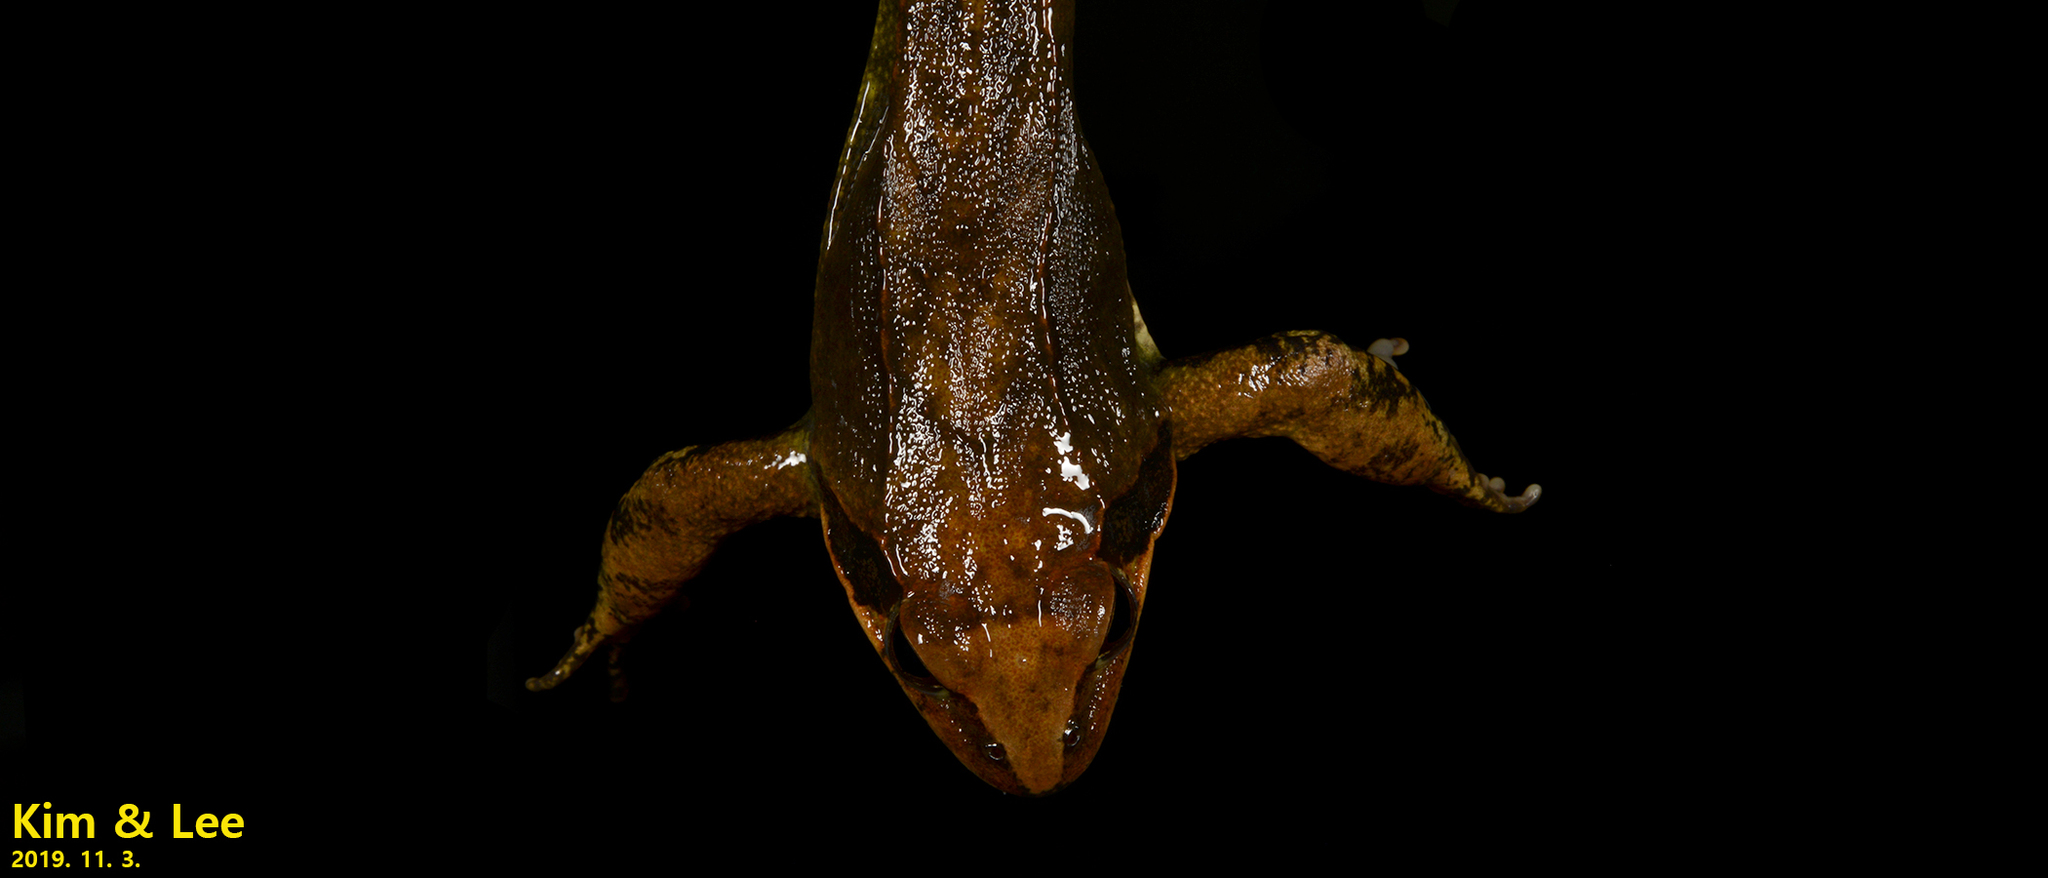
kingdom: Animalia
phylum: Chordata
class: Amphibia
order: Anura
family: Ranidae
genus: Rana
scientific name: Rana uenoi
